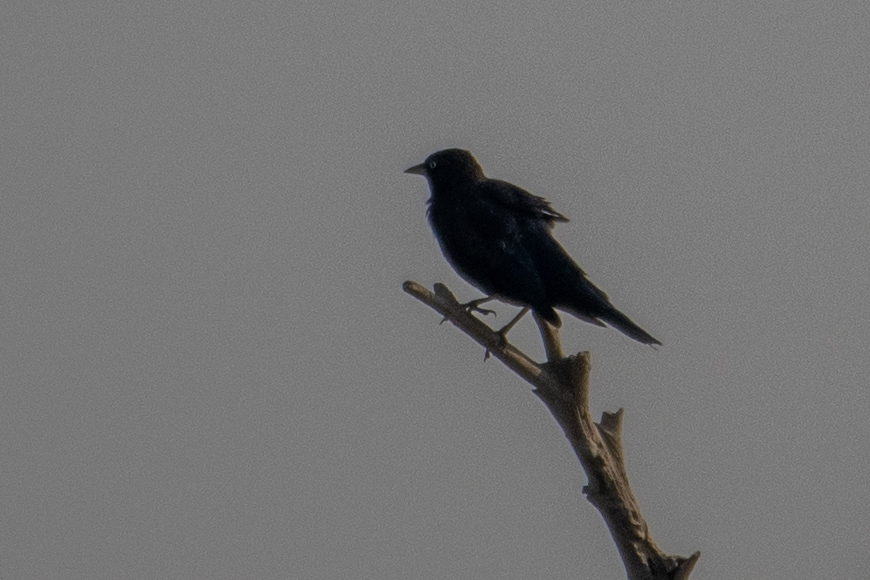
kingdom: Animalia
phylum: Chordata
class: Aves
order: Passeriformes
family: Icteridae
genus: Euphagus
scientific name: Euphagus cyanocephalus
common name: Brewer's blackbird
